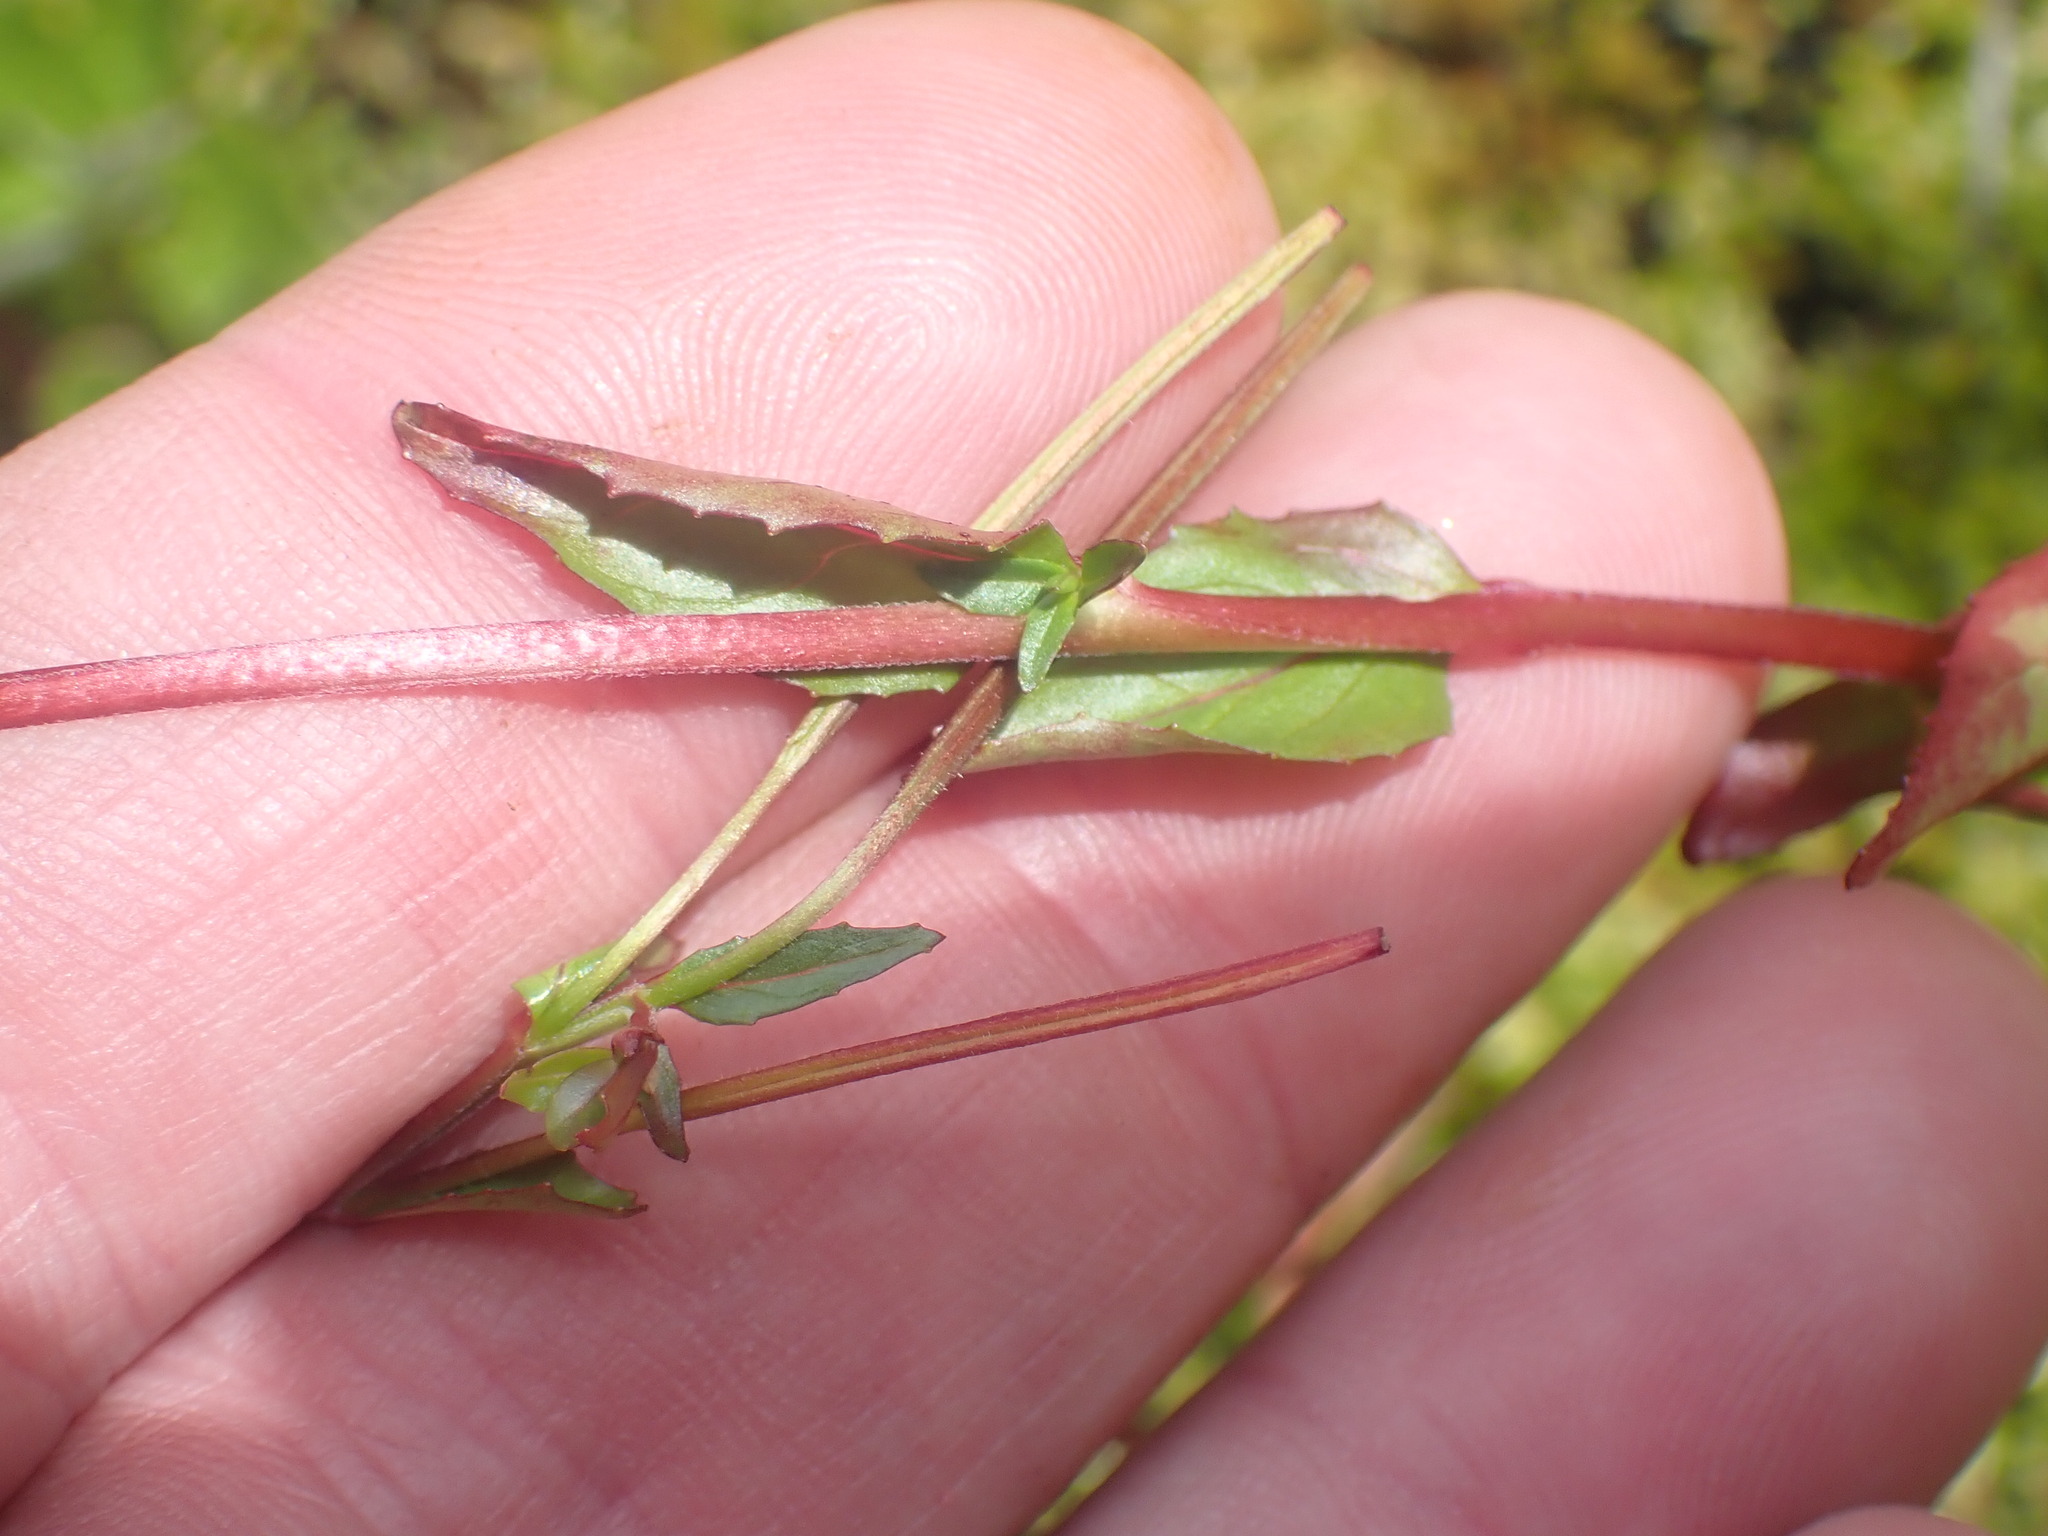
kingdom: Plantae
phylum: Tracheophyta
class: Magnoliopsida
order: Myrtales
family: Onagraceae
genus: Epilobium
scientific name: Epilobium ciliatum
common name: American willowherb
